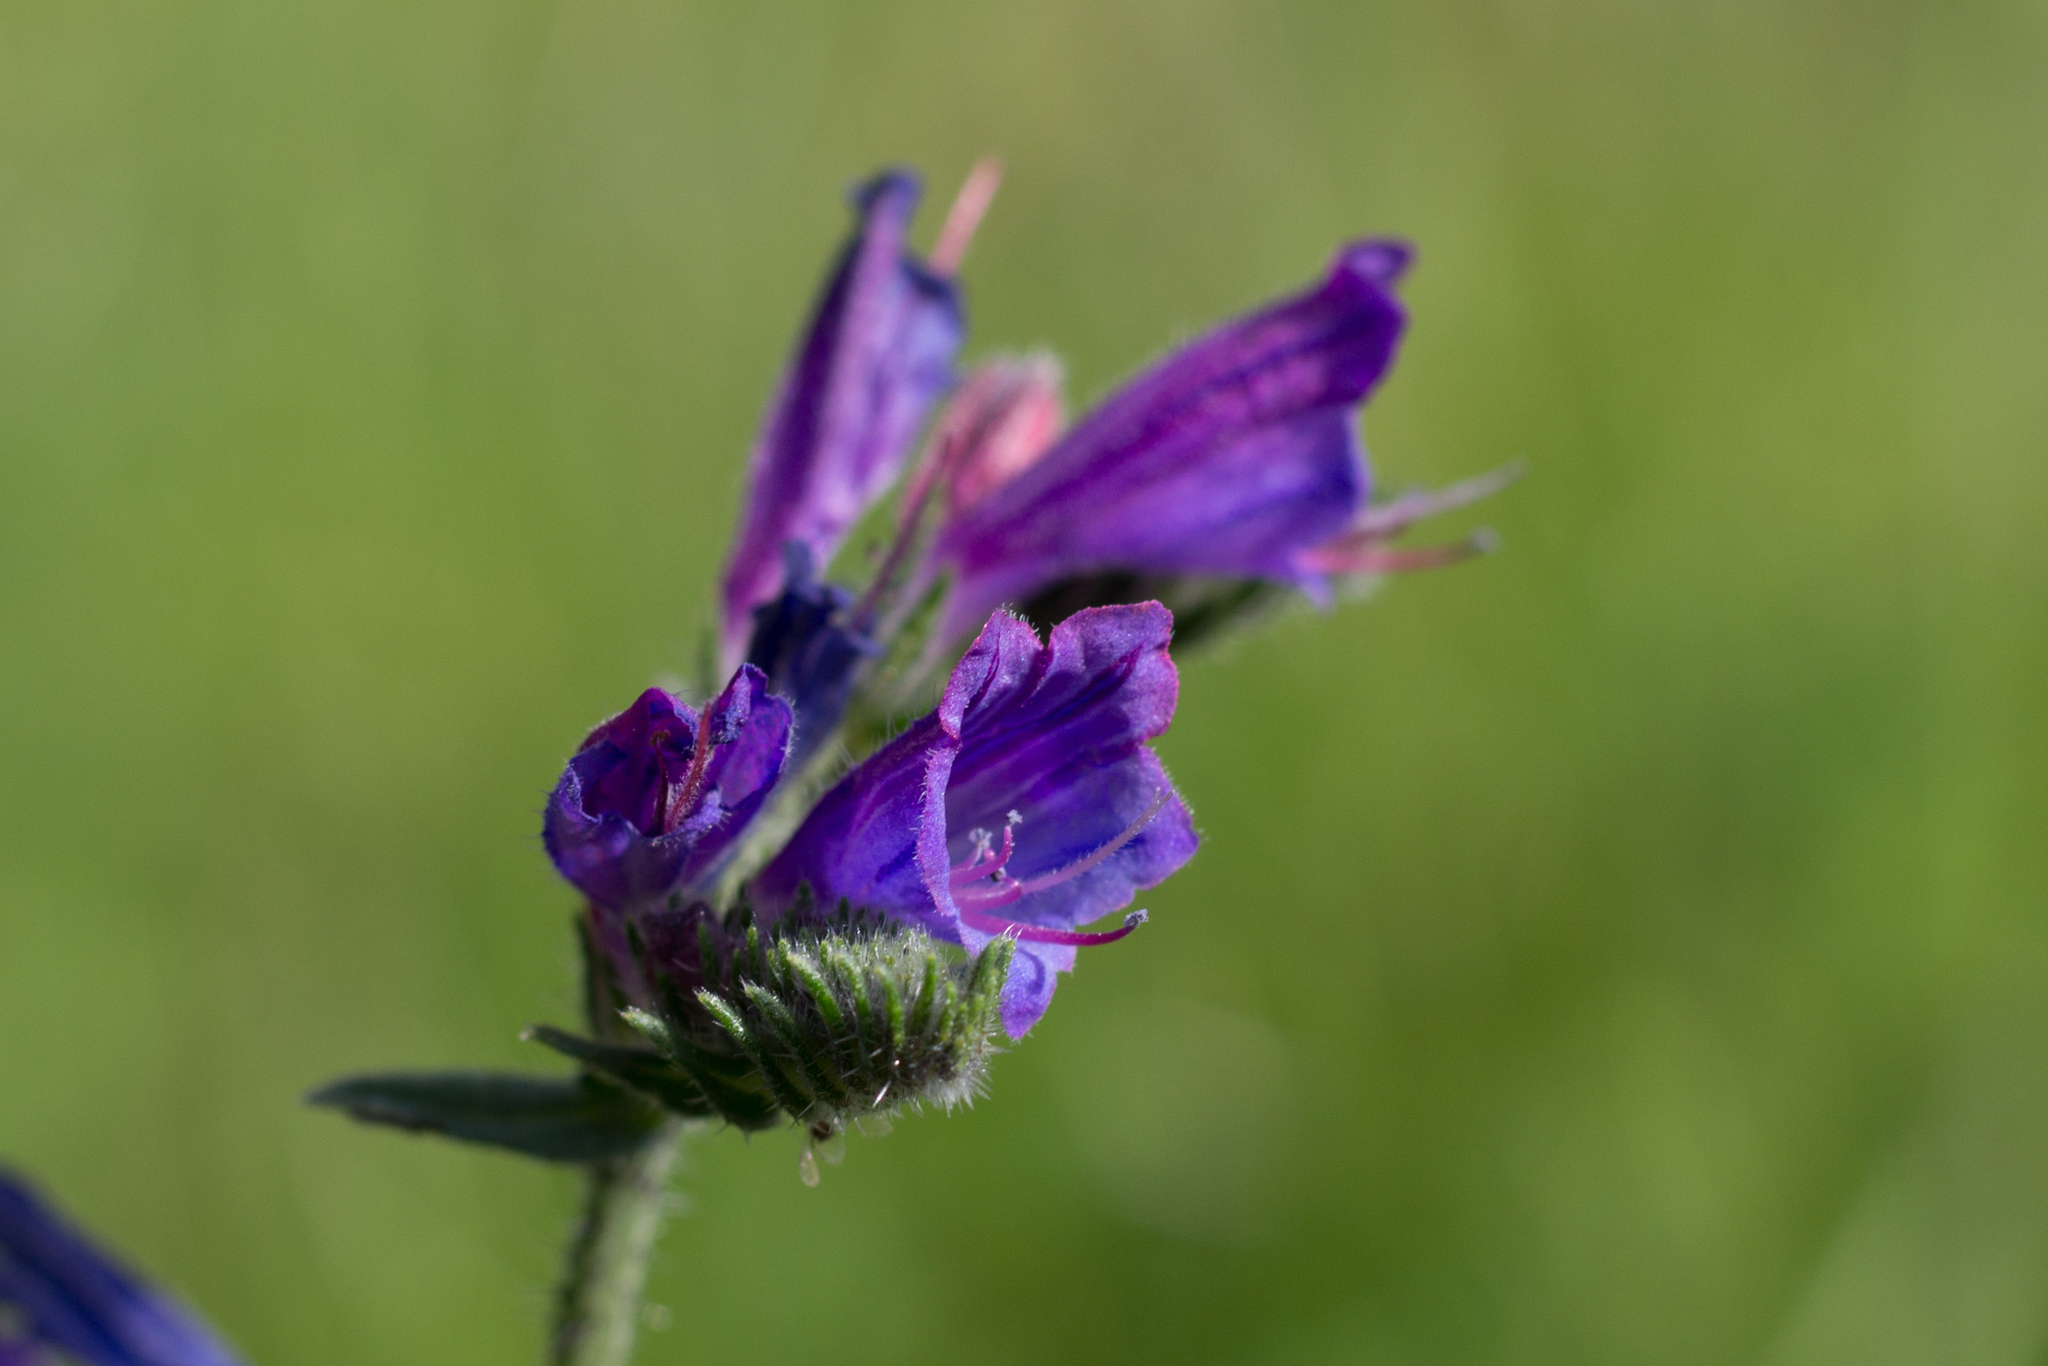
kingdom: Plantae
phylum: Tracheophyta
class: Magnoliopsida
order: Boraginales
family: Boraginaceae
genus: Echium
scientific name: Echium tuberculatum
